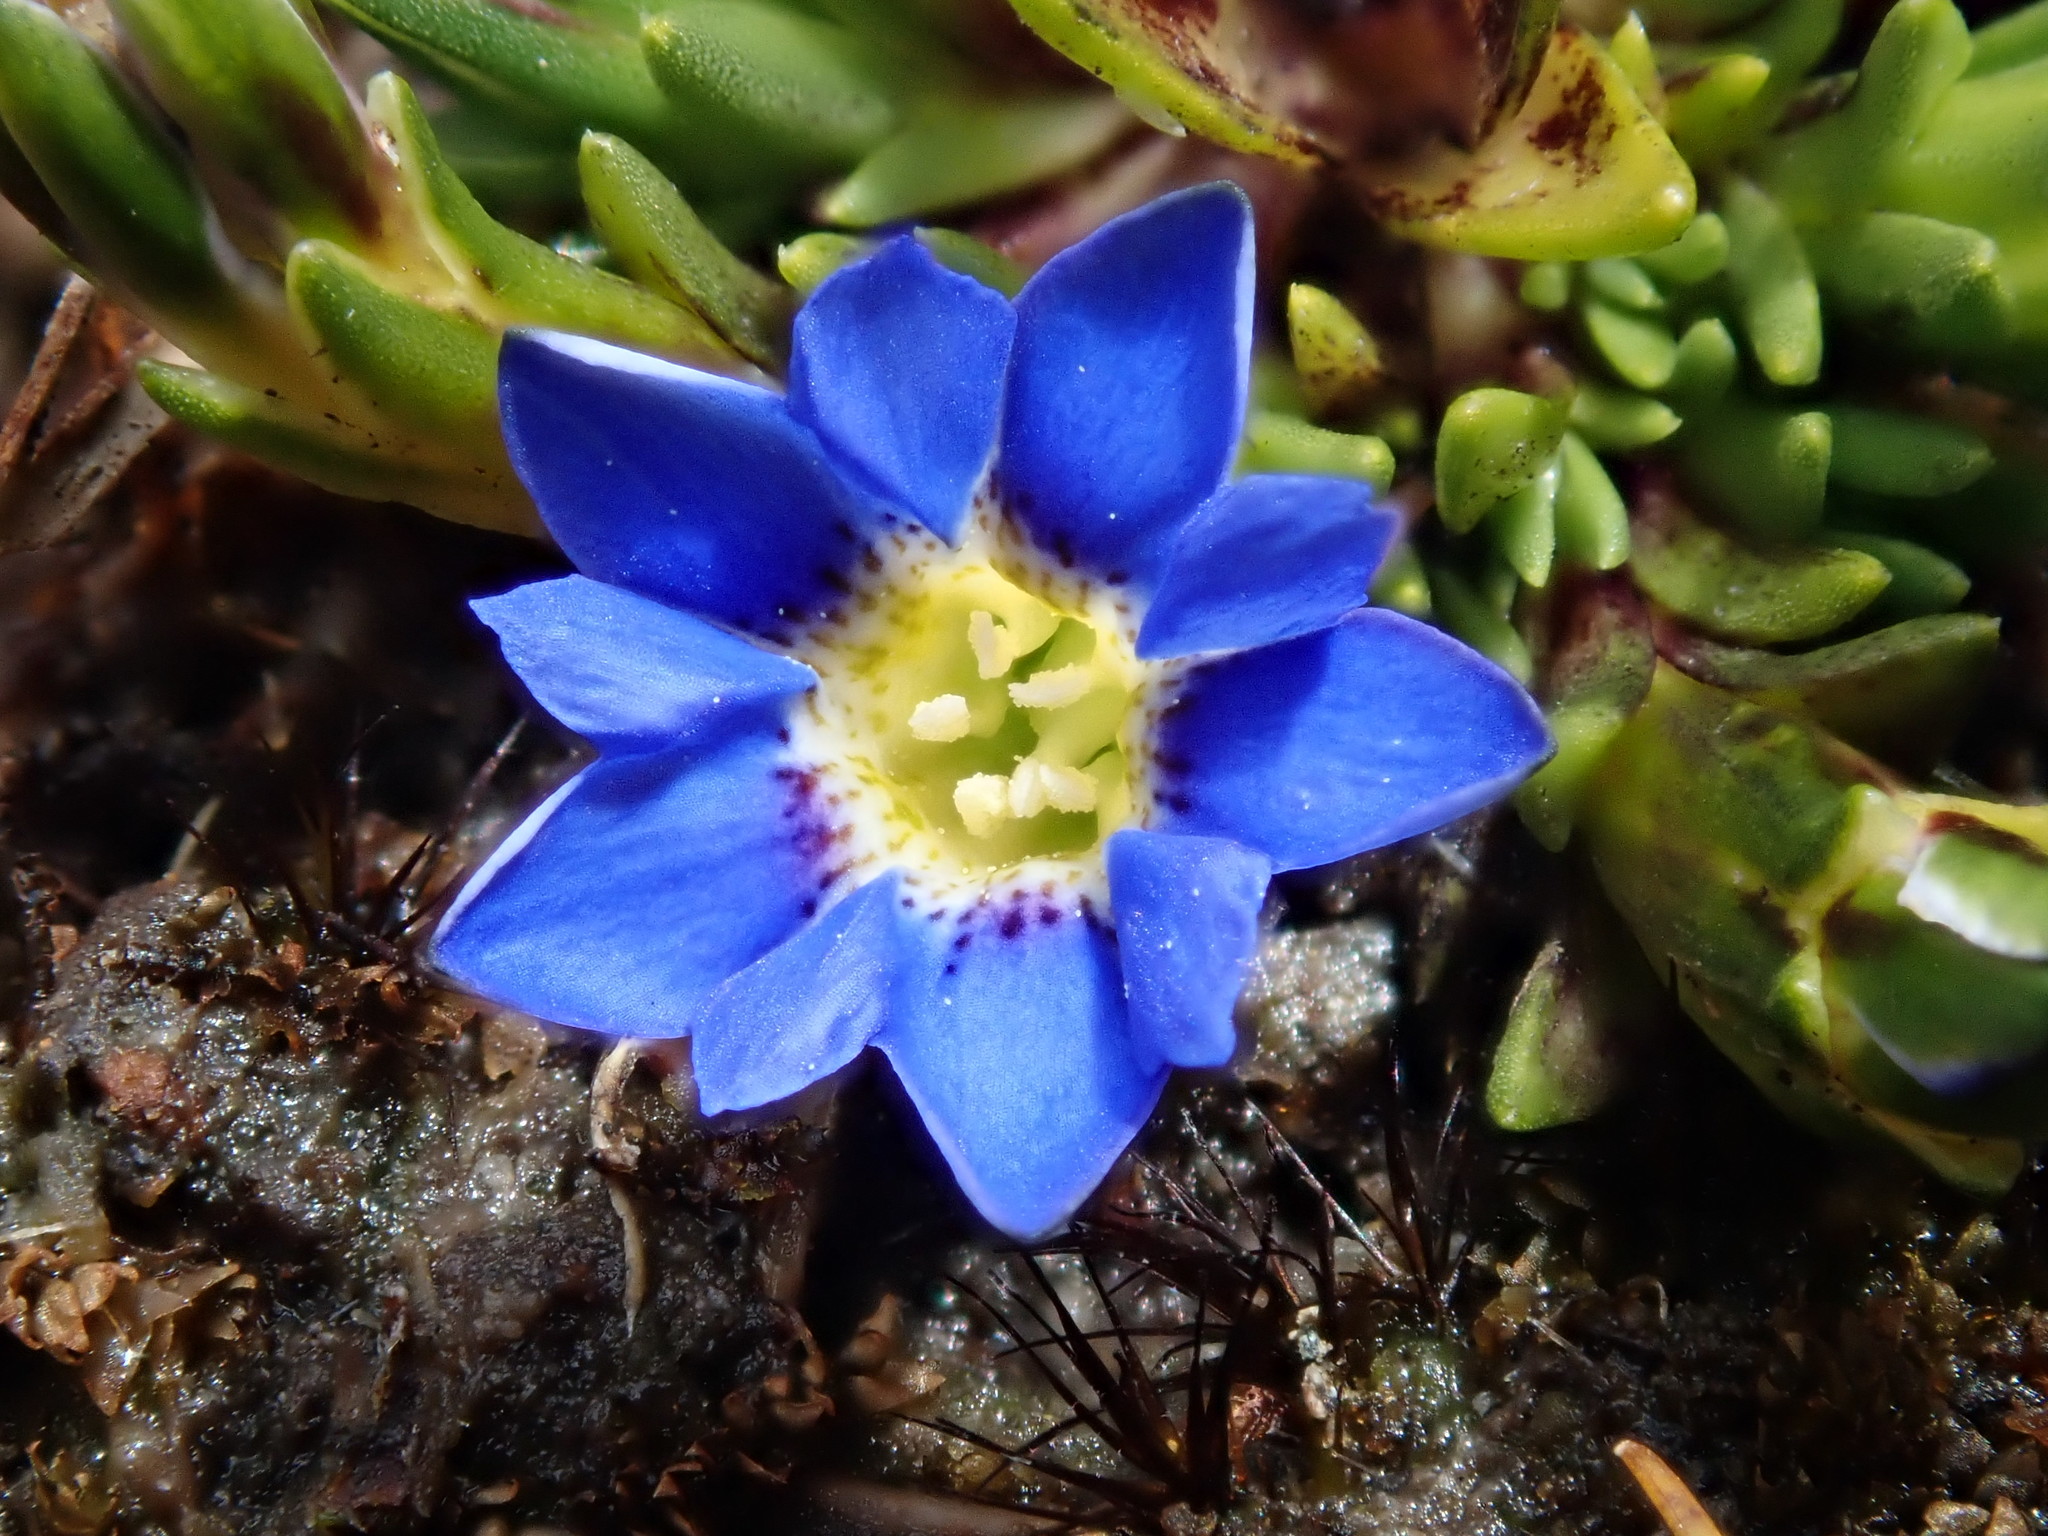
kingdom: Plantae
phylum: Tracheophyta
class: Magnoliopsida
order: Gentianales
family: Gentianaceae
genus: Gentiana
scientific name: Gentiana sedifolia
